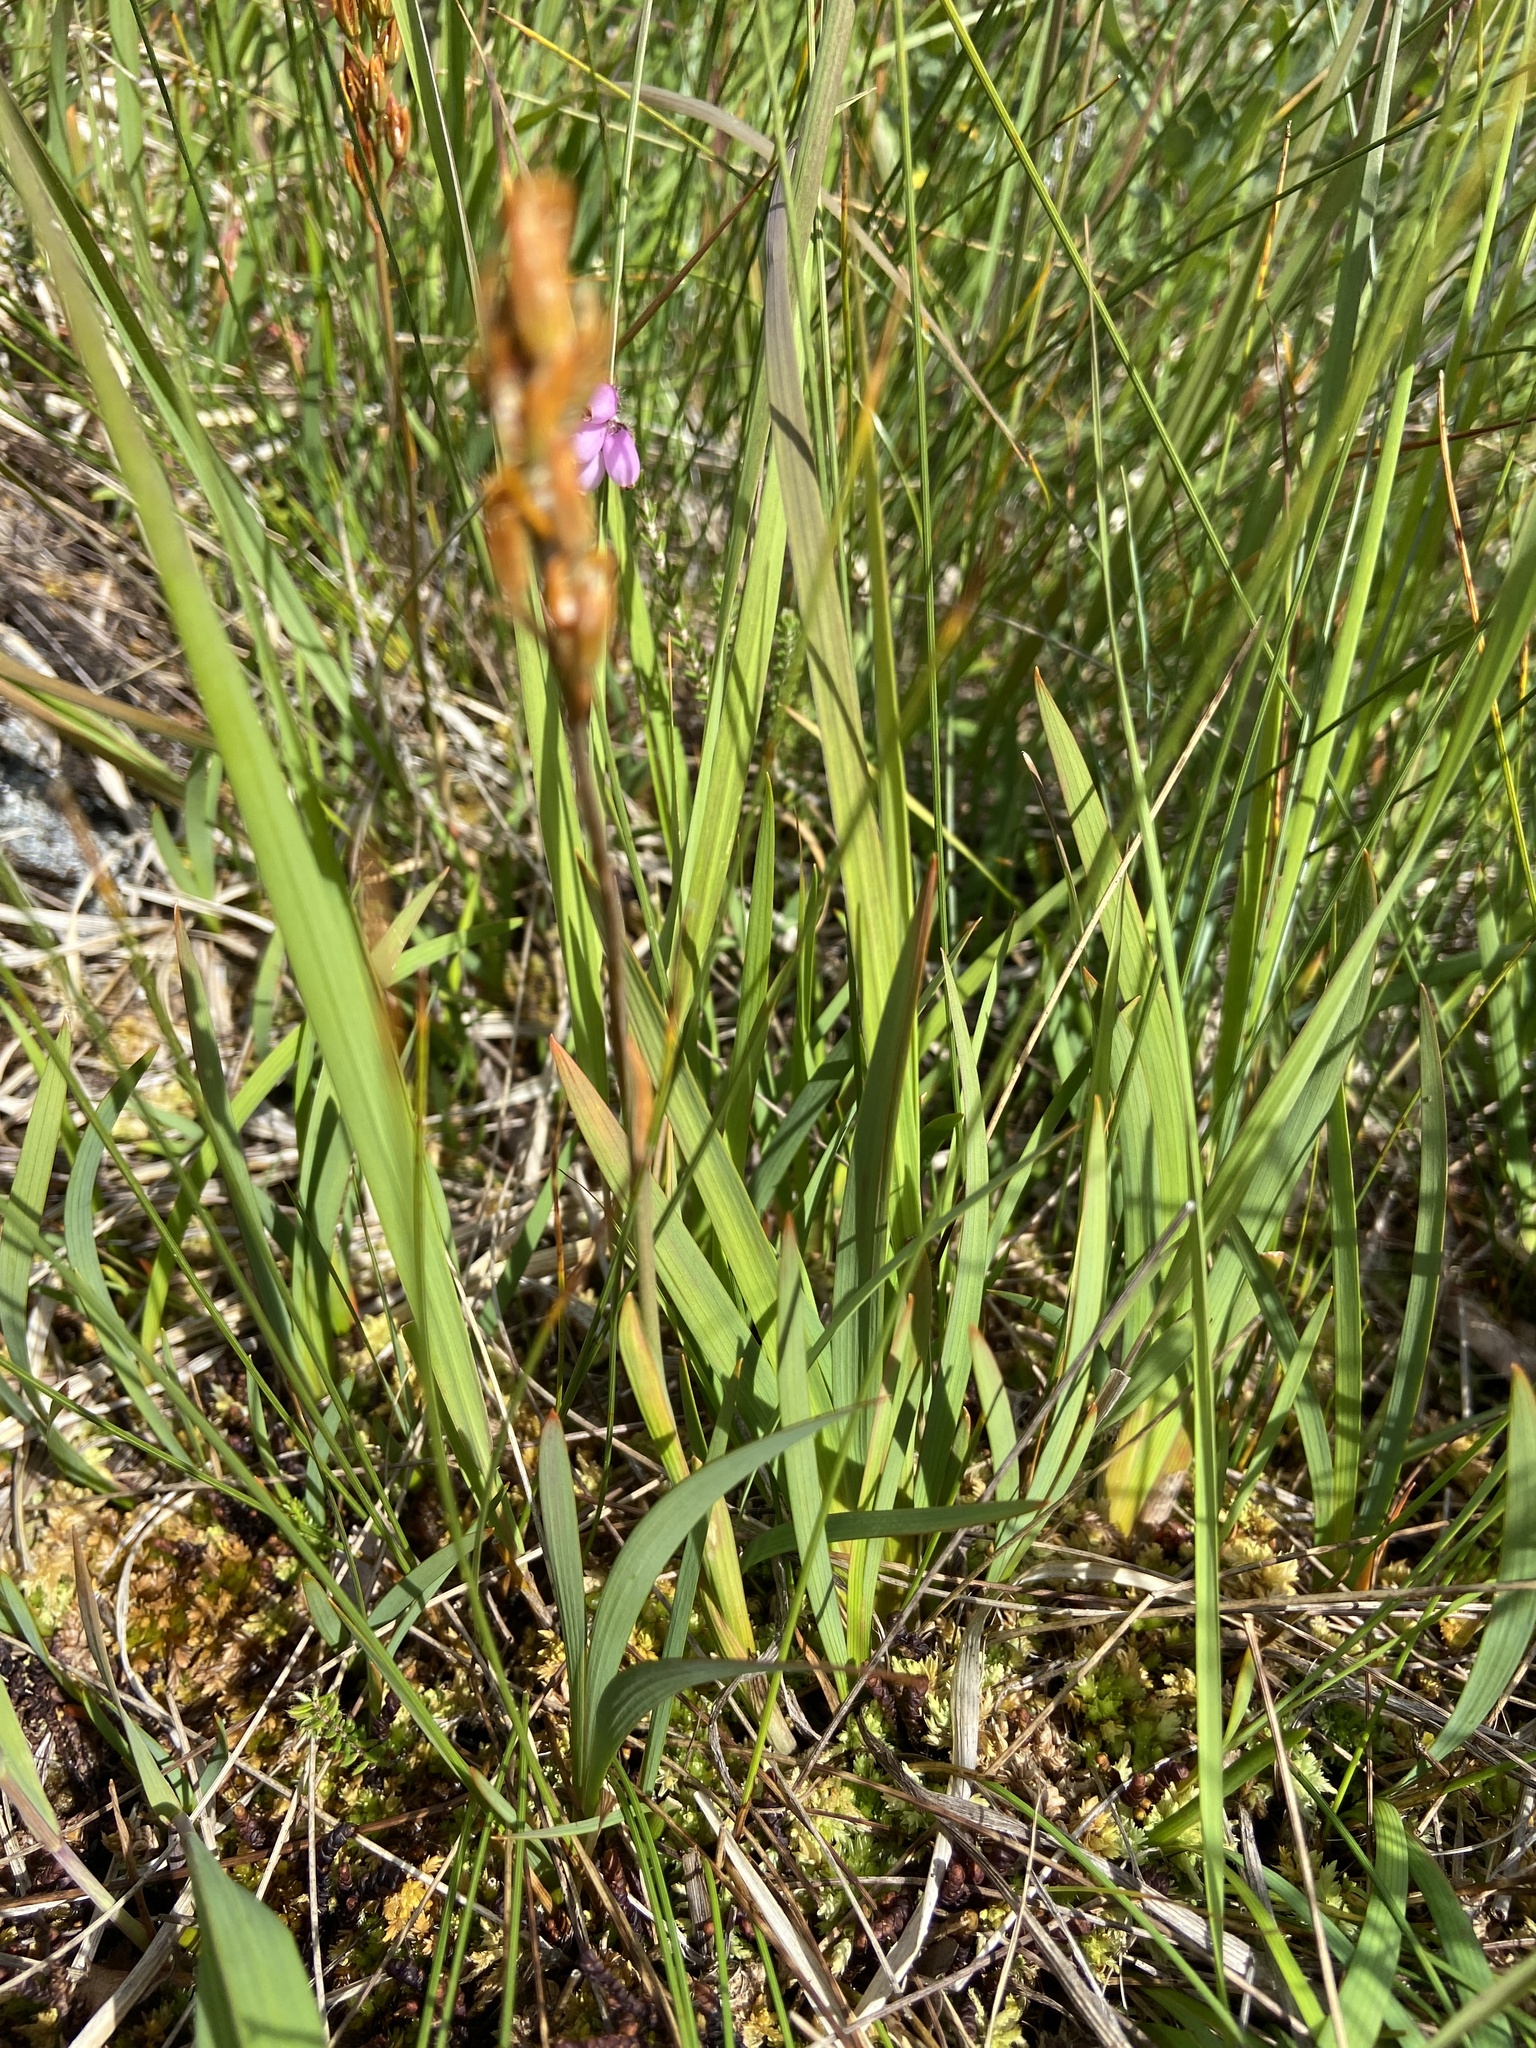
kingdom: Plantae
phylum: Tracheophyta
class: Liliopsida
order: Dioscoreales
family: Nartheciaceae
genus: Narthecium
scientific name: Narthecium ossifragum
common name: Bog asphodel
